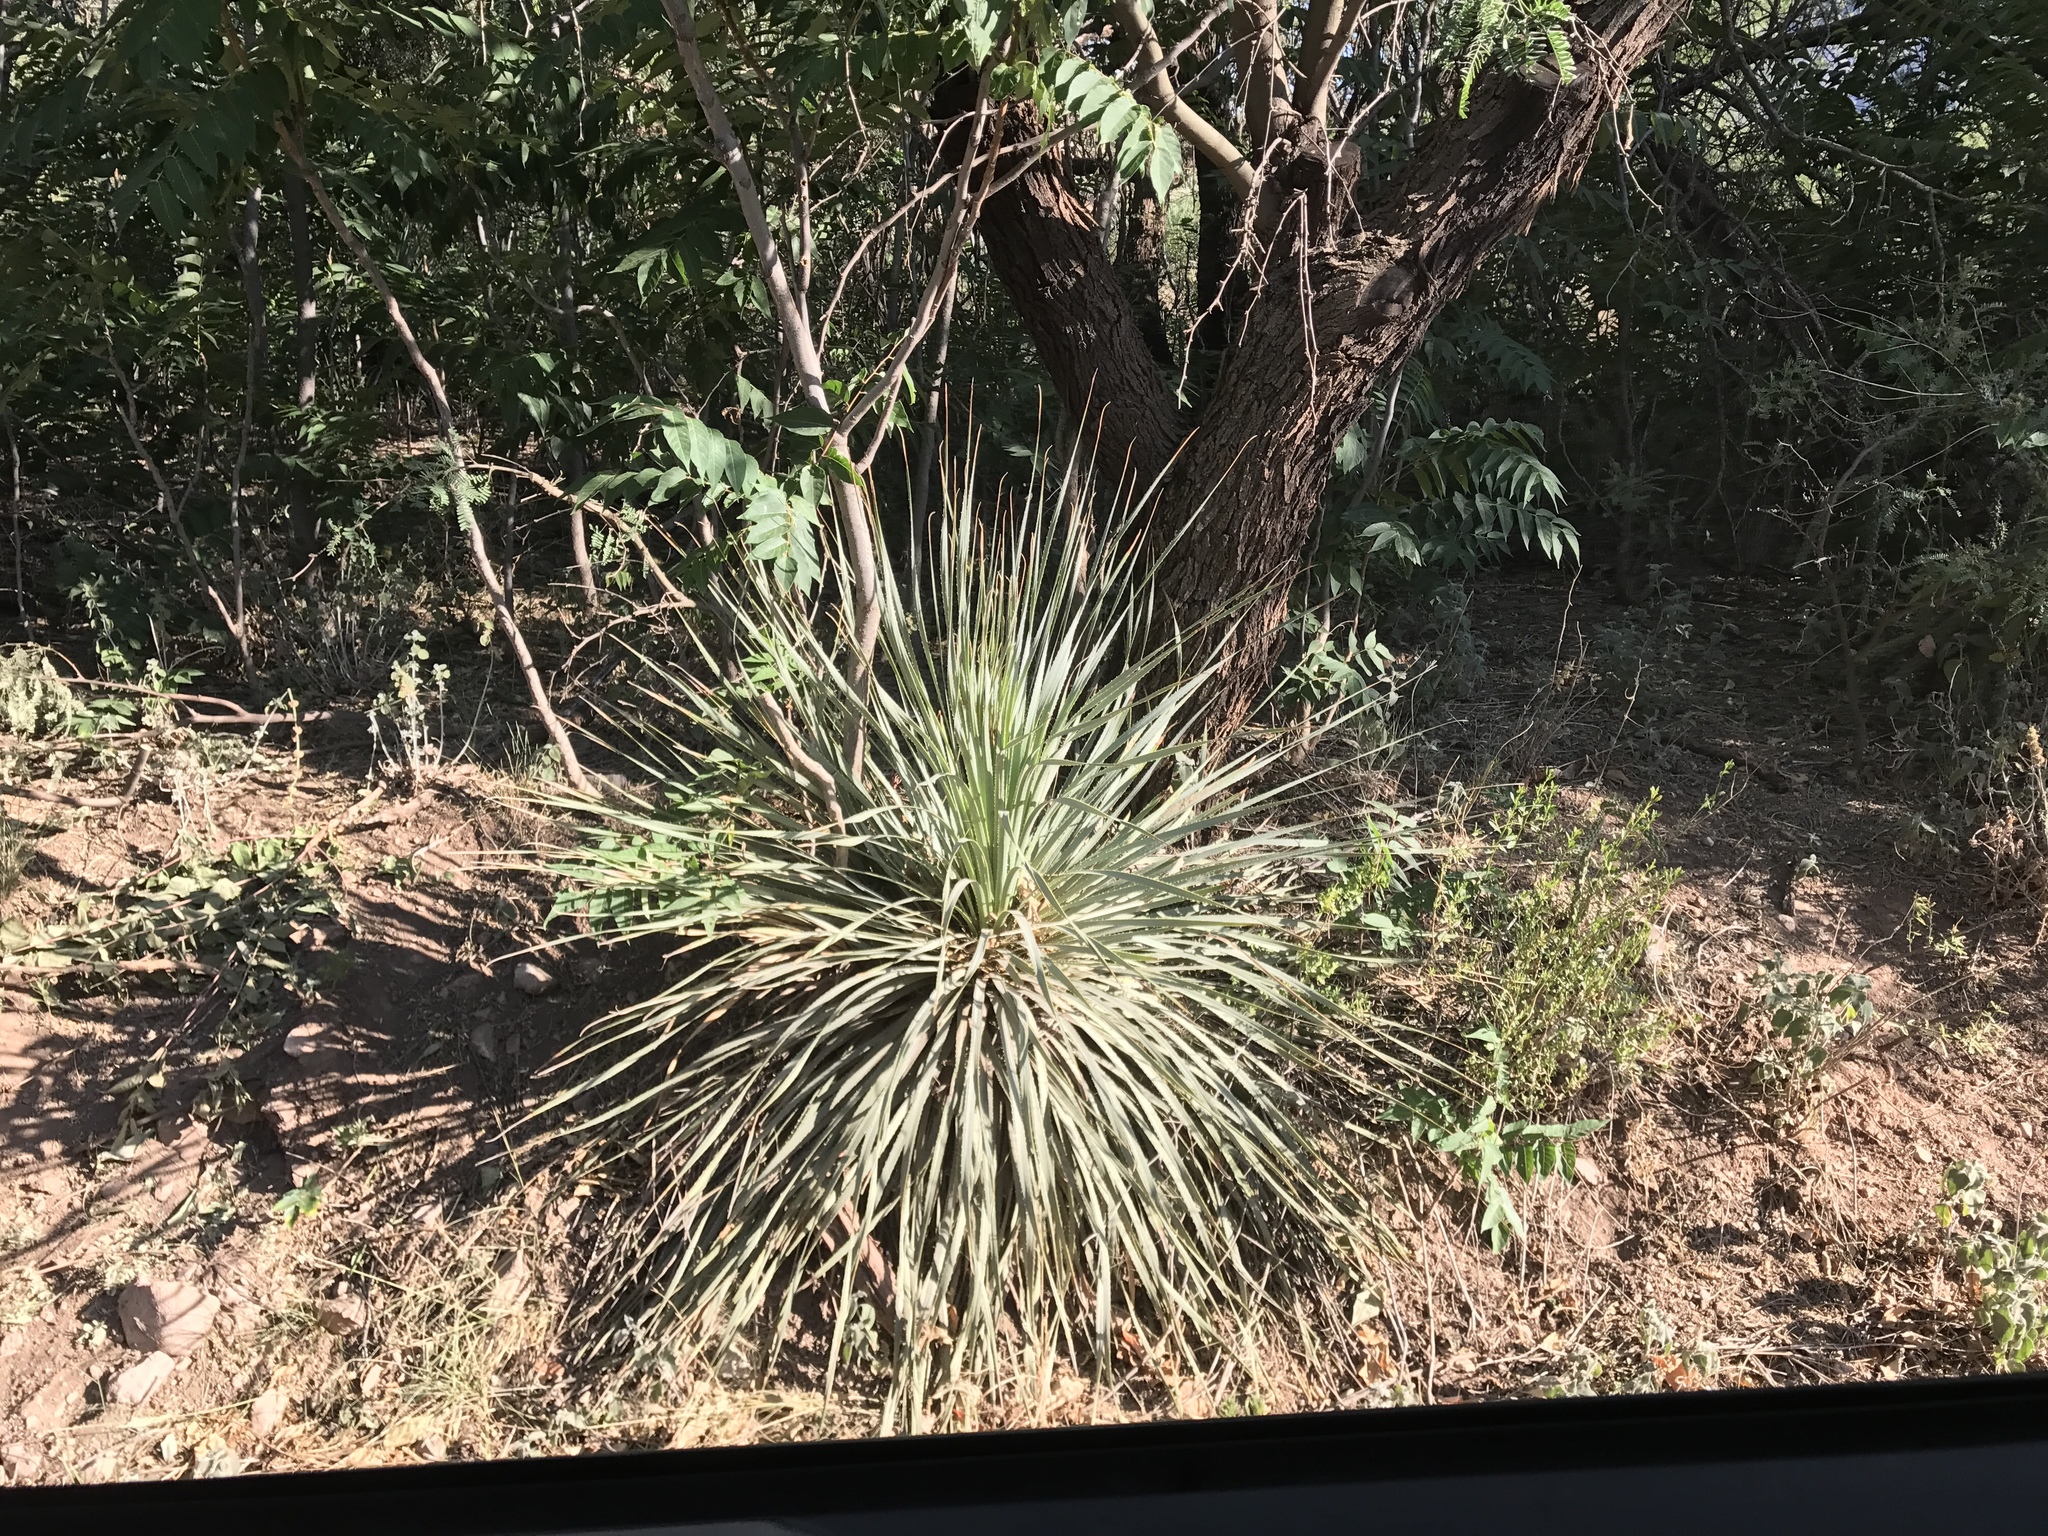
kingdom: Plantae
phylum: Tracheophyta
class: Liliopsida
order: Asparagales
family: Asparagaceae
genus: Dasylirion
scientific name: Dasylirion wheeleri
